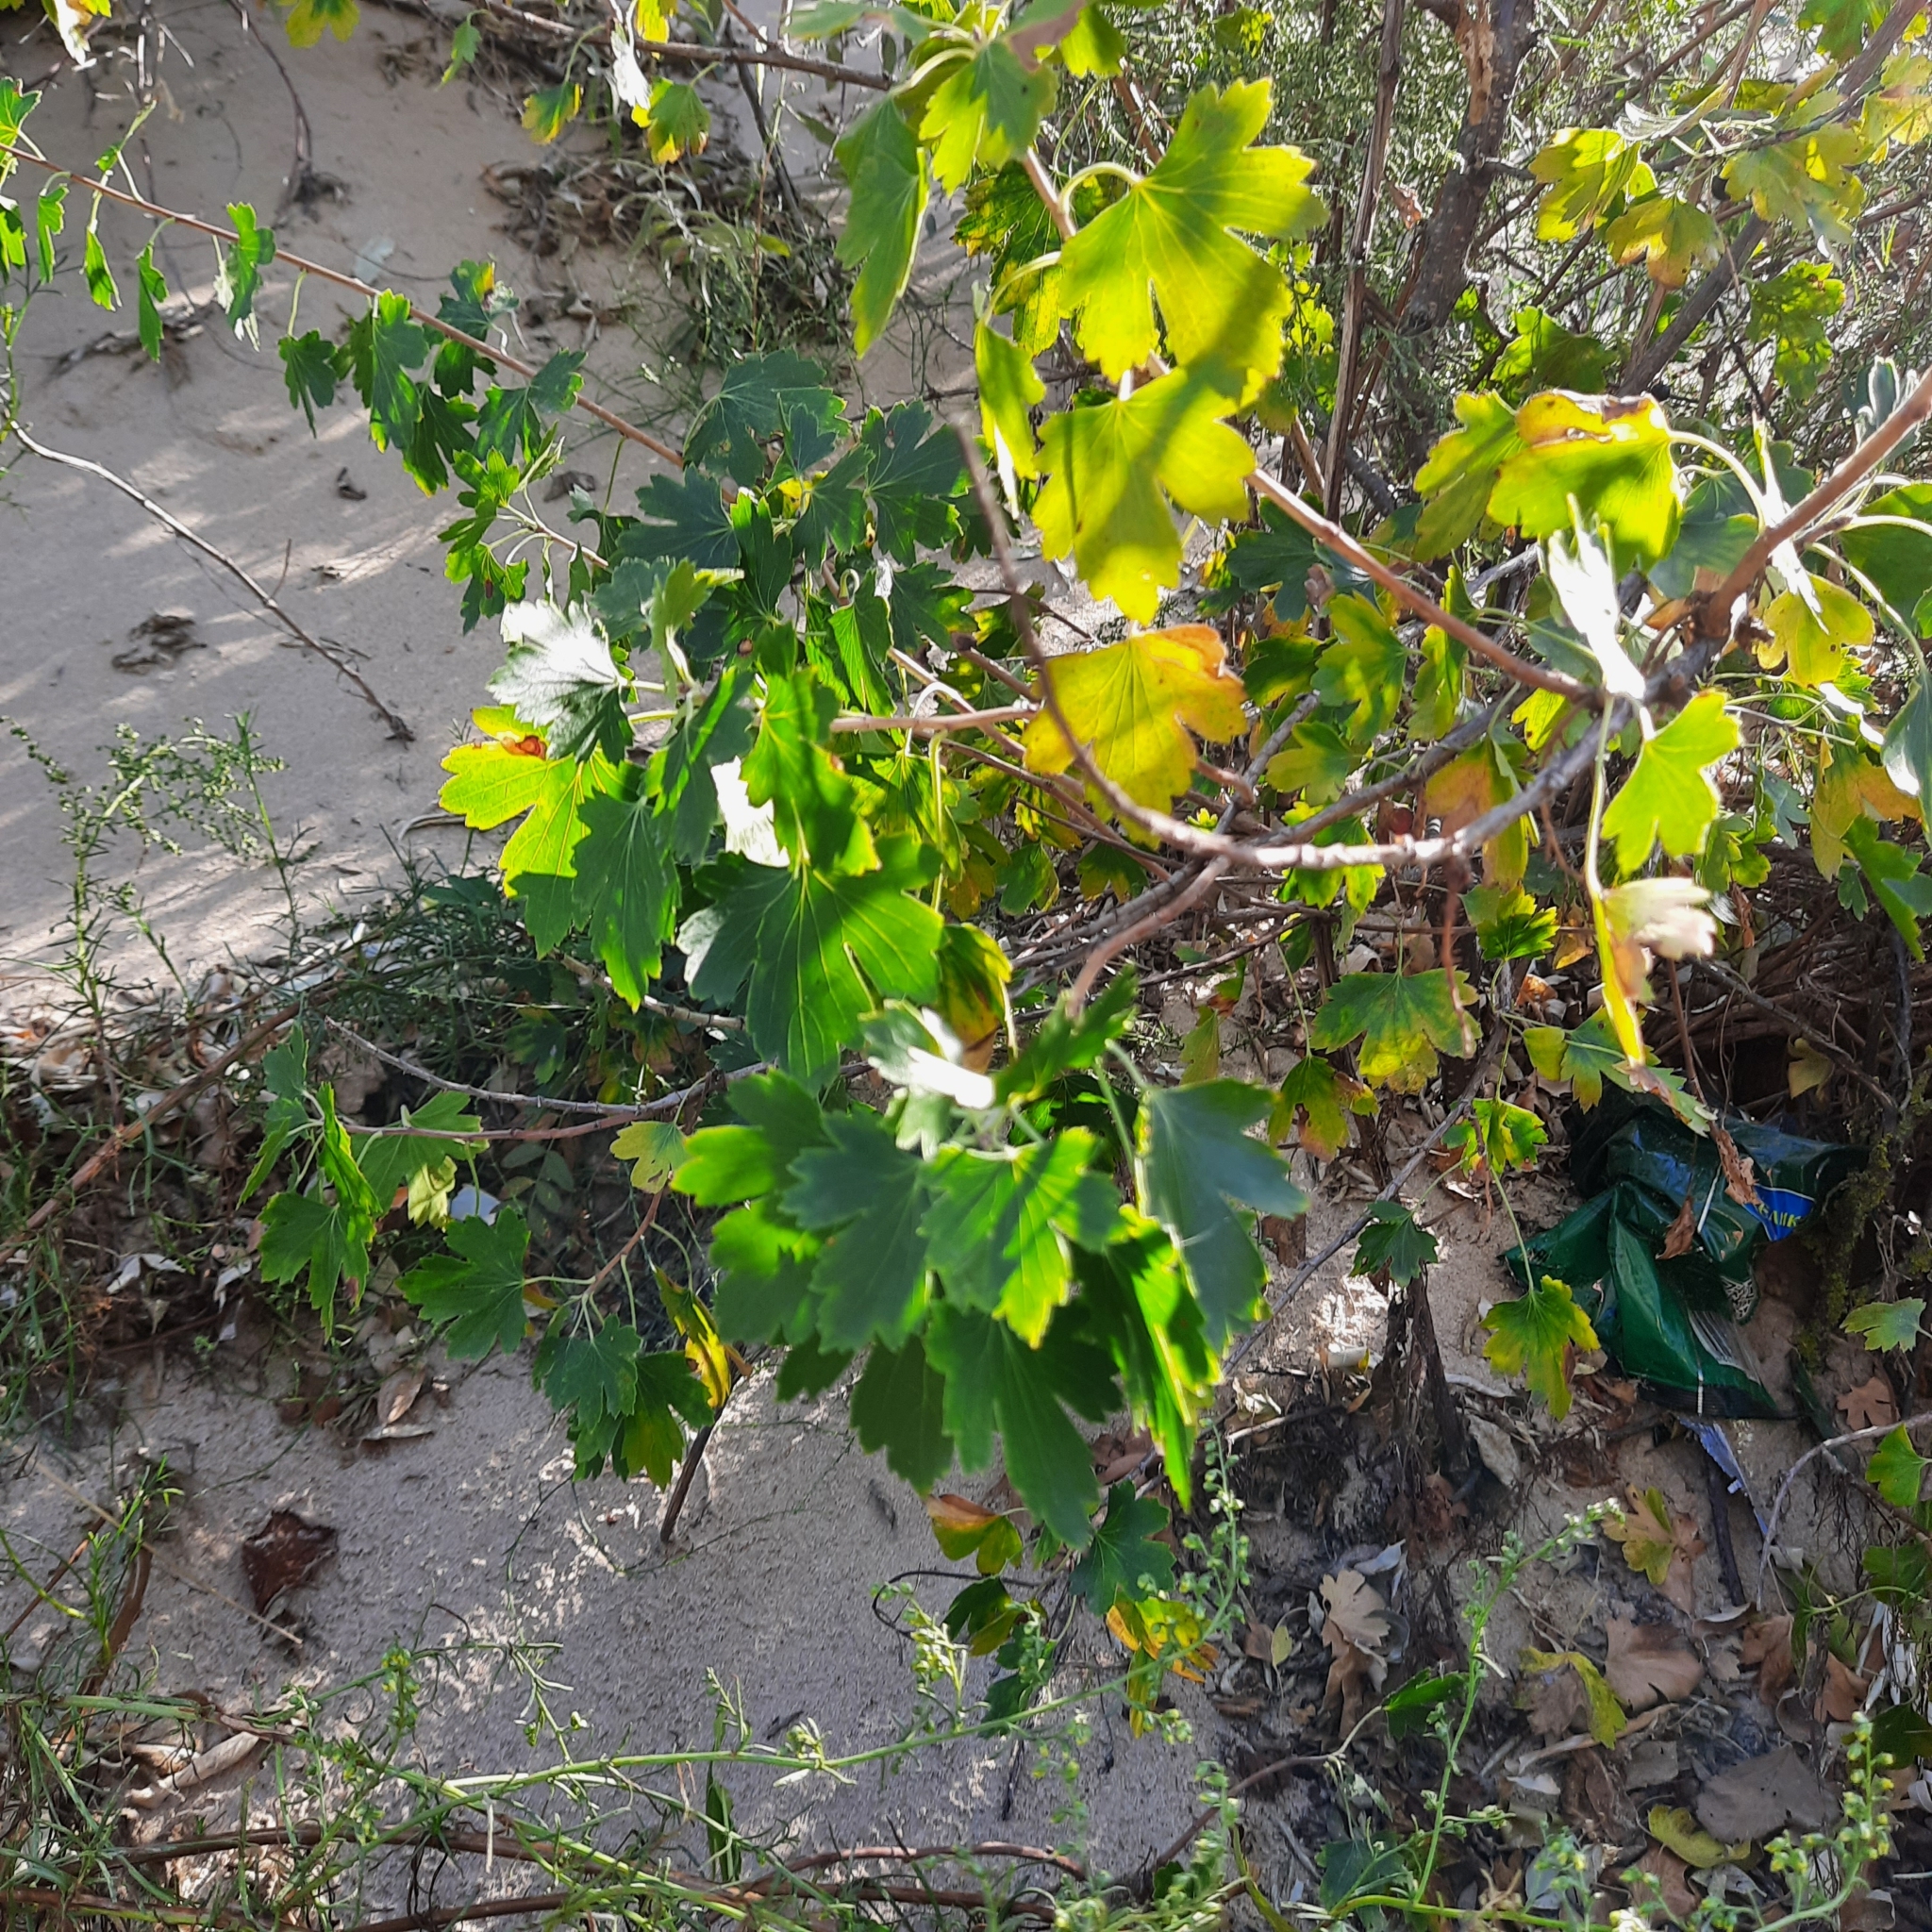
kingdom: Plantae
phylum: Tracheophyta
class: Magnoliopsida
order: Saxifragales
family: Grossulariaceae
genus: Ribes
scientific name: Ribes aureum
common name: Golden currant
